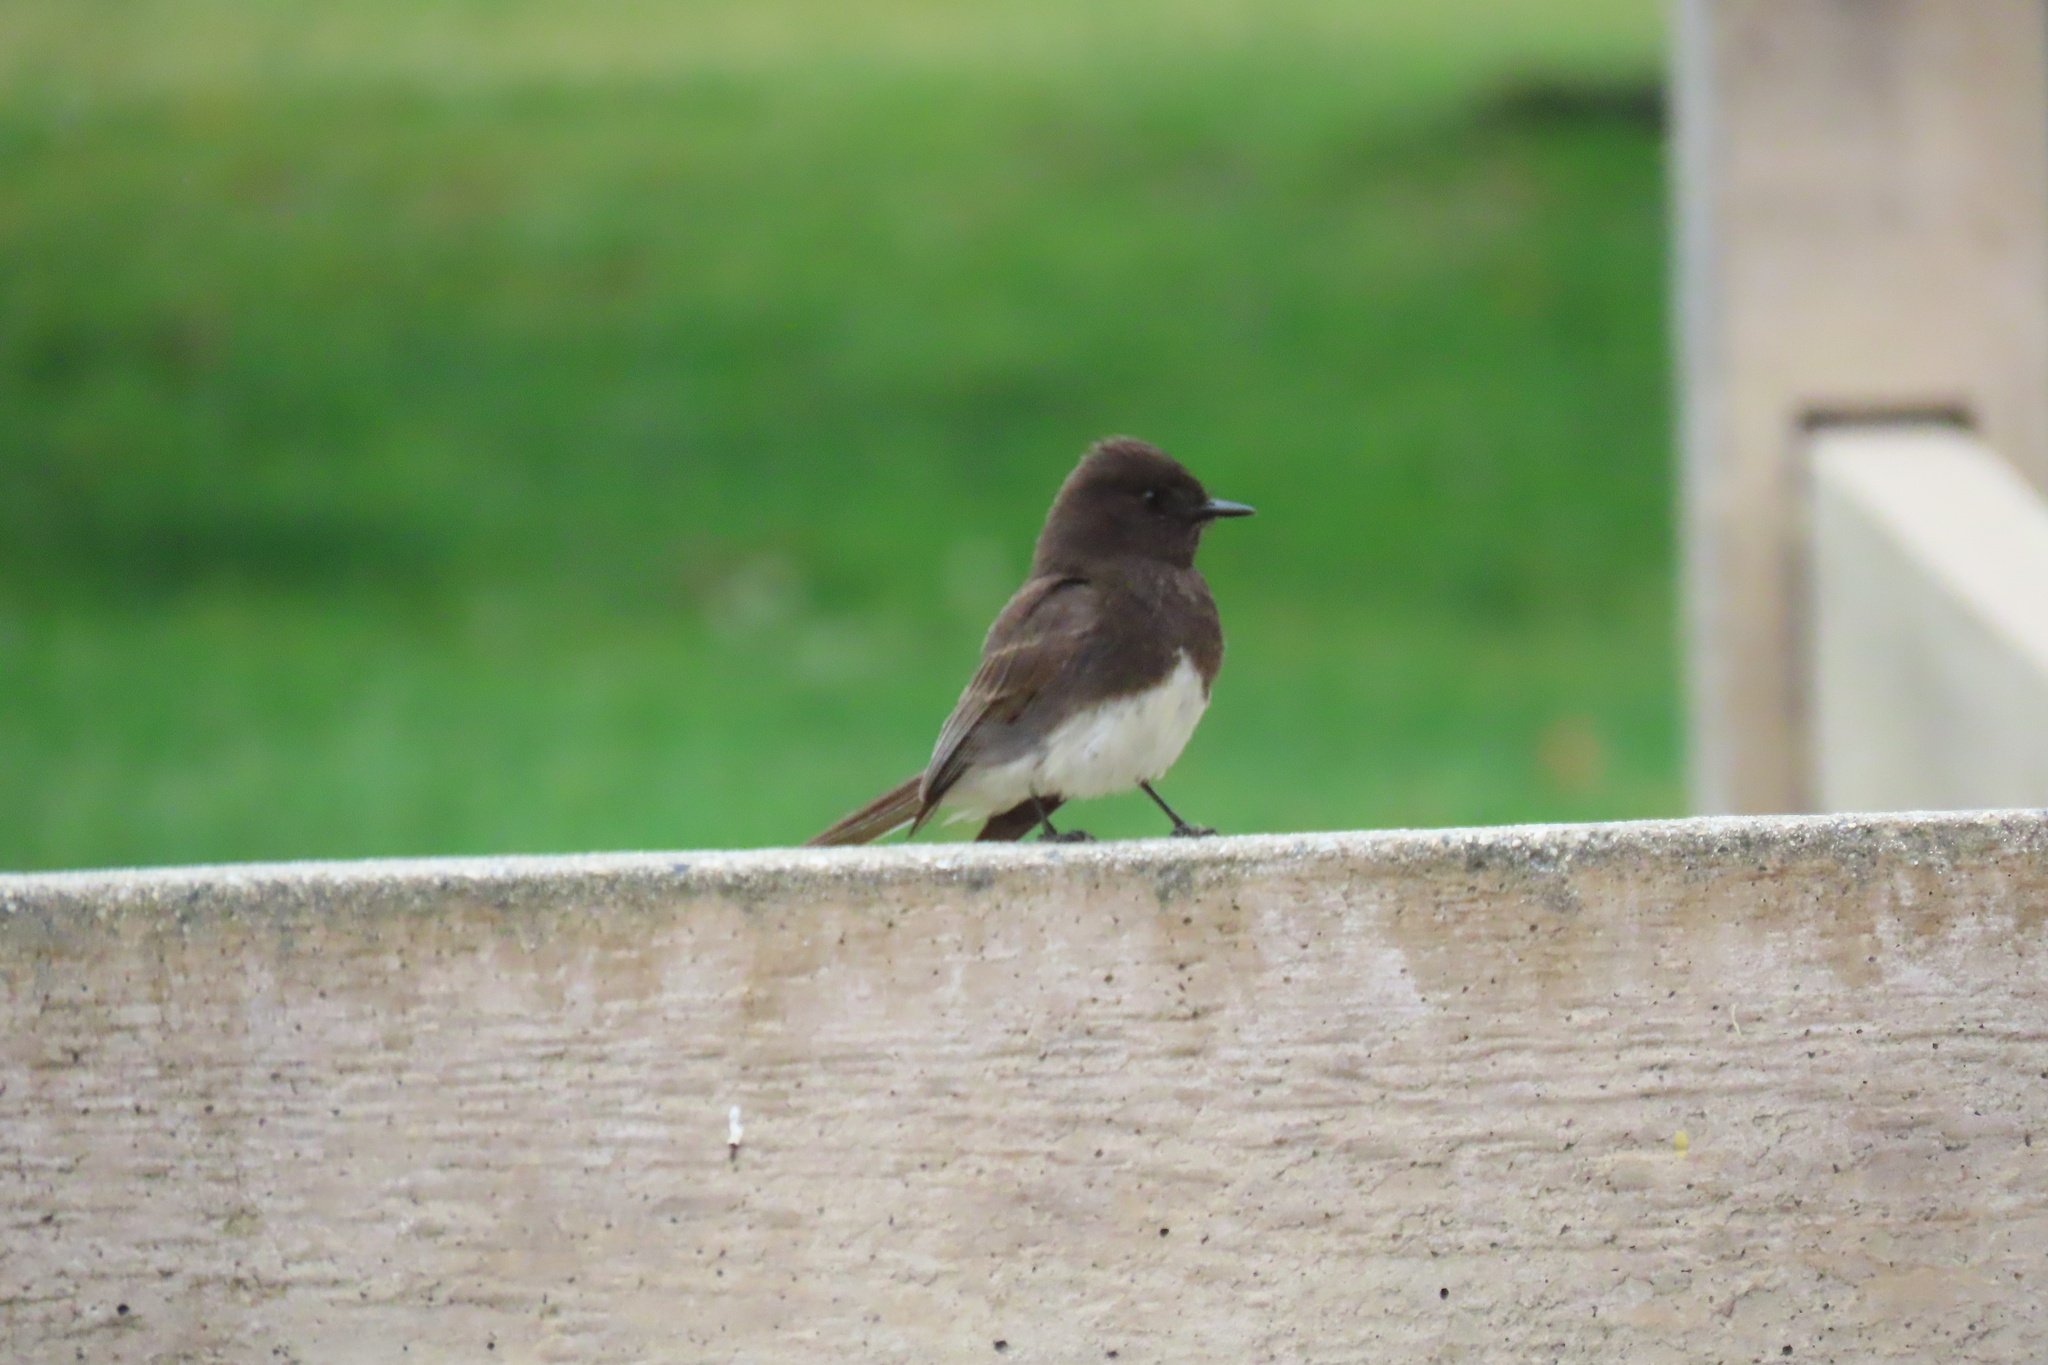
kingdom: Animalia
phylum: Chordata
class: Aves
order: Passeriformes
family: Tyrannidae
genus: Sayornis
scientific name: Sayornis nigricans
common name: Black phoebe
